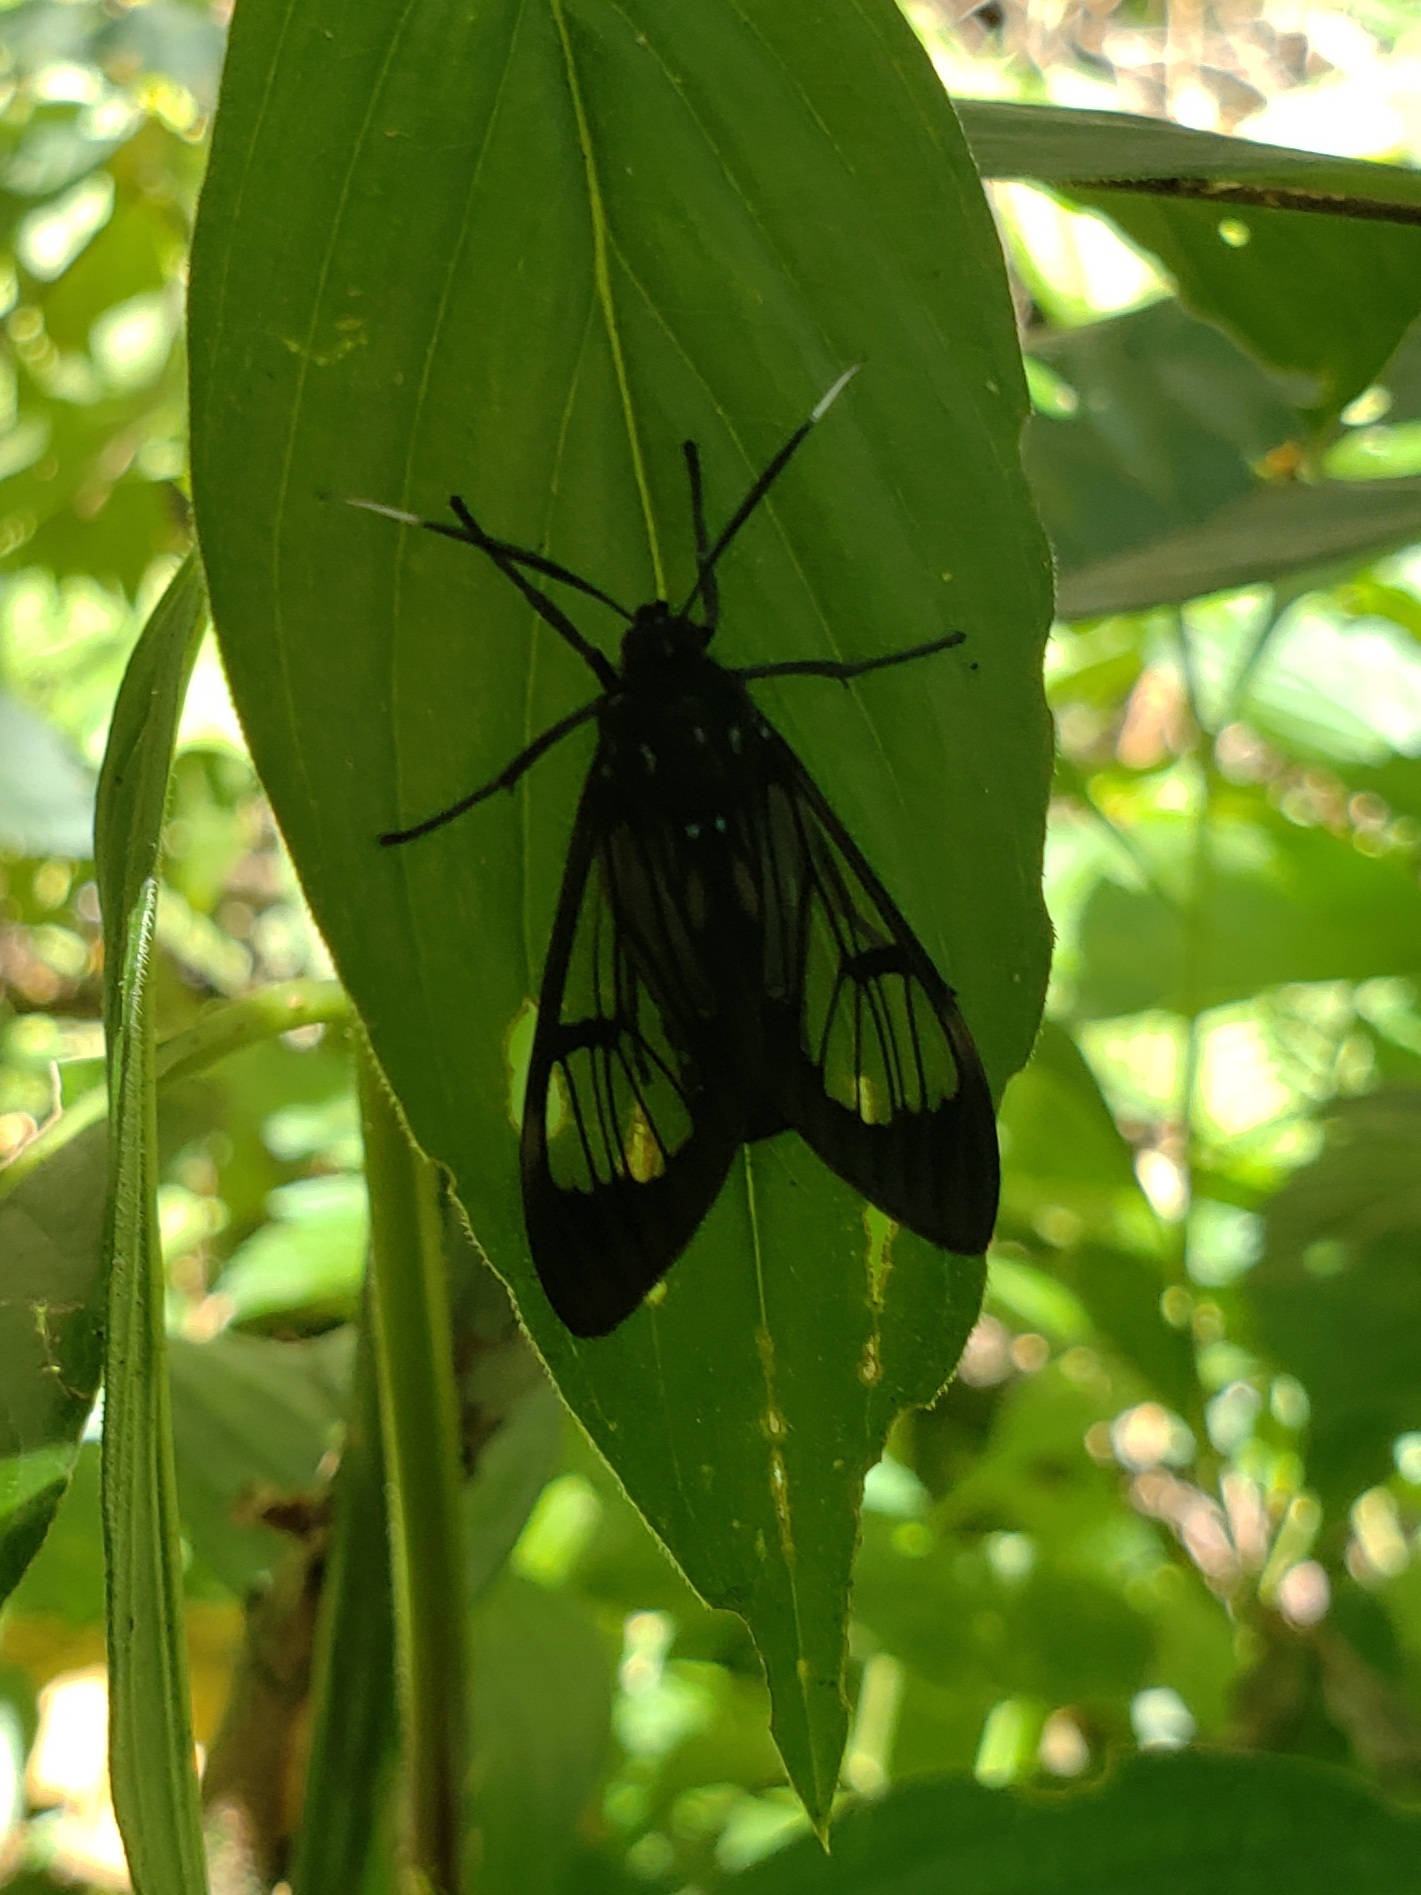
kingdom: Animalia
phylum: Arthropoda
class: Insecta
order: Lepidoptera
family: Erebidae
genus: Neotrichura
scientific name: Neotrichura nigripes
